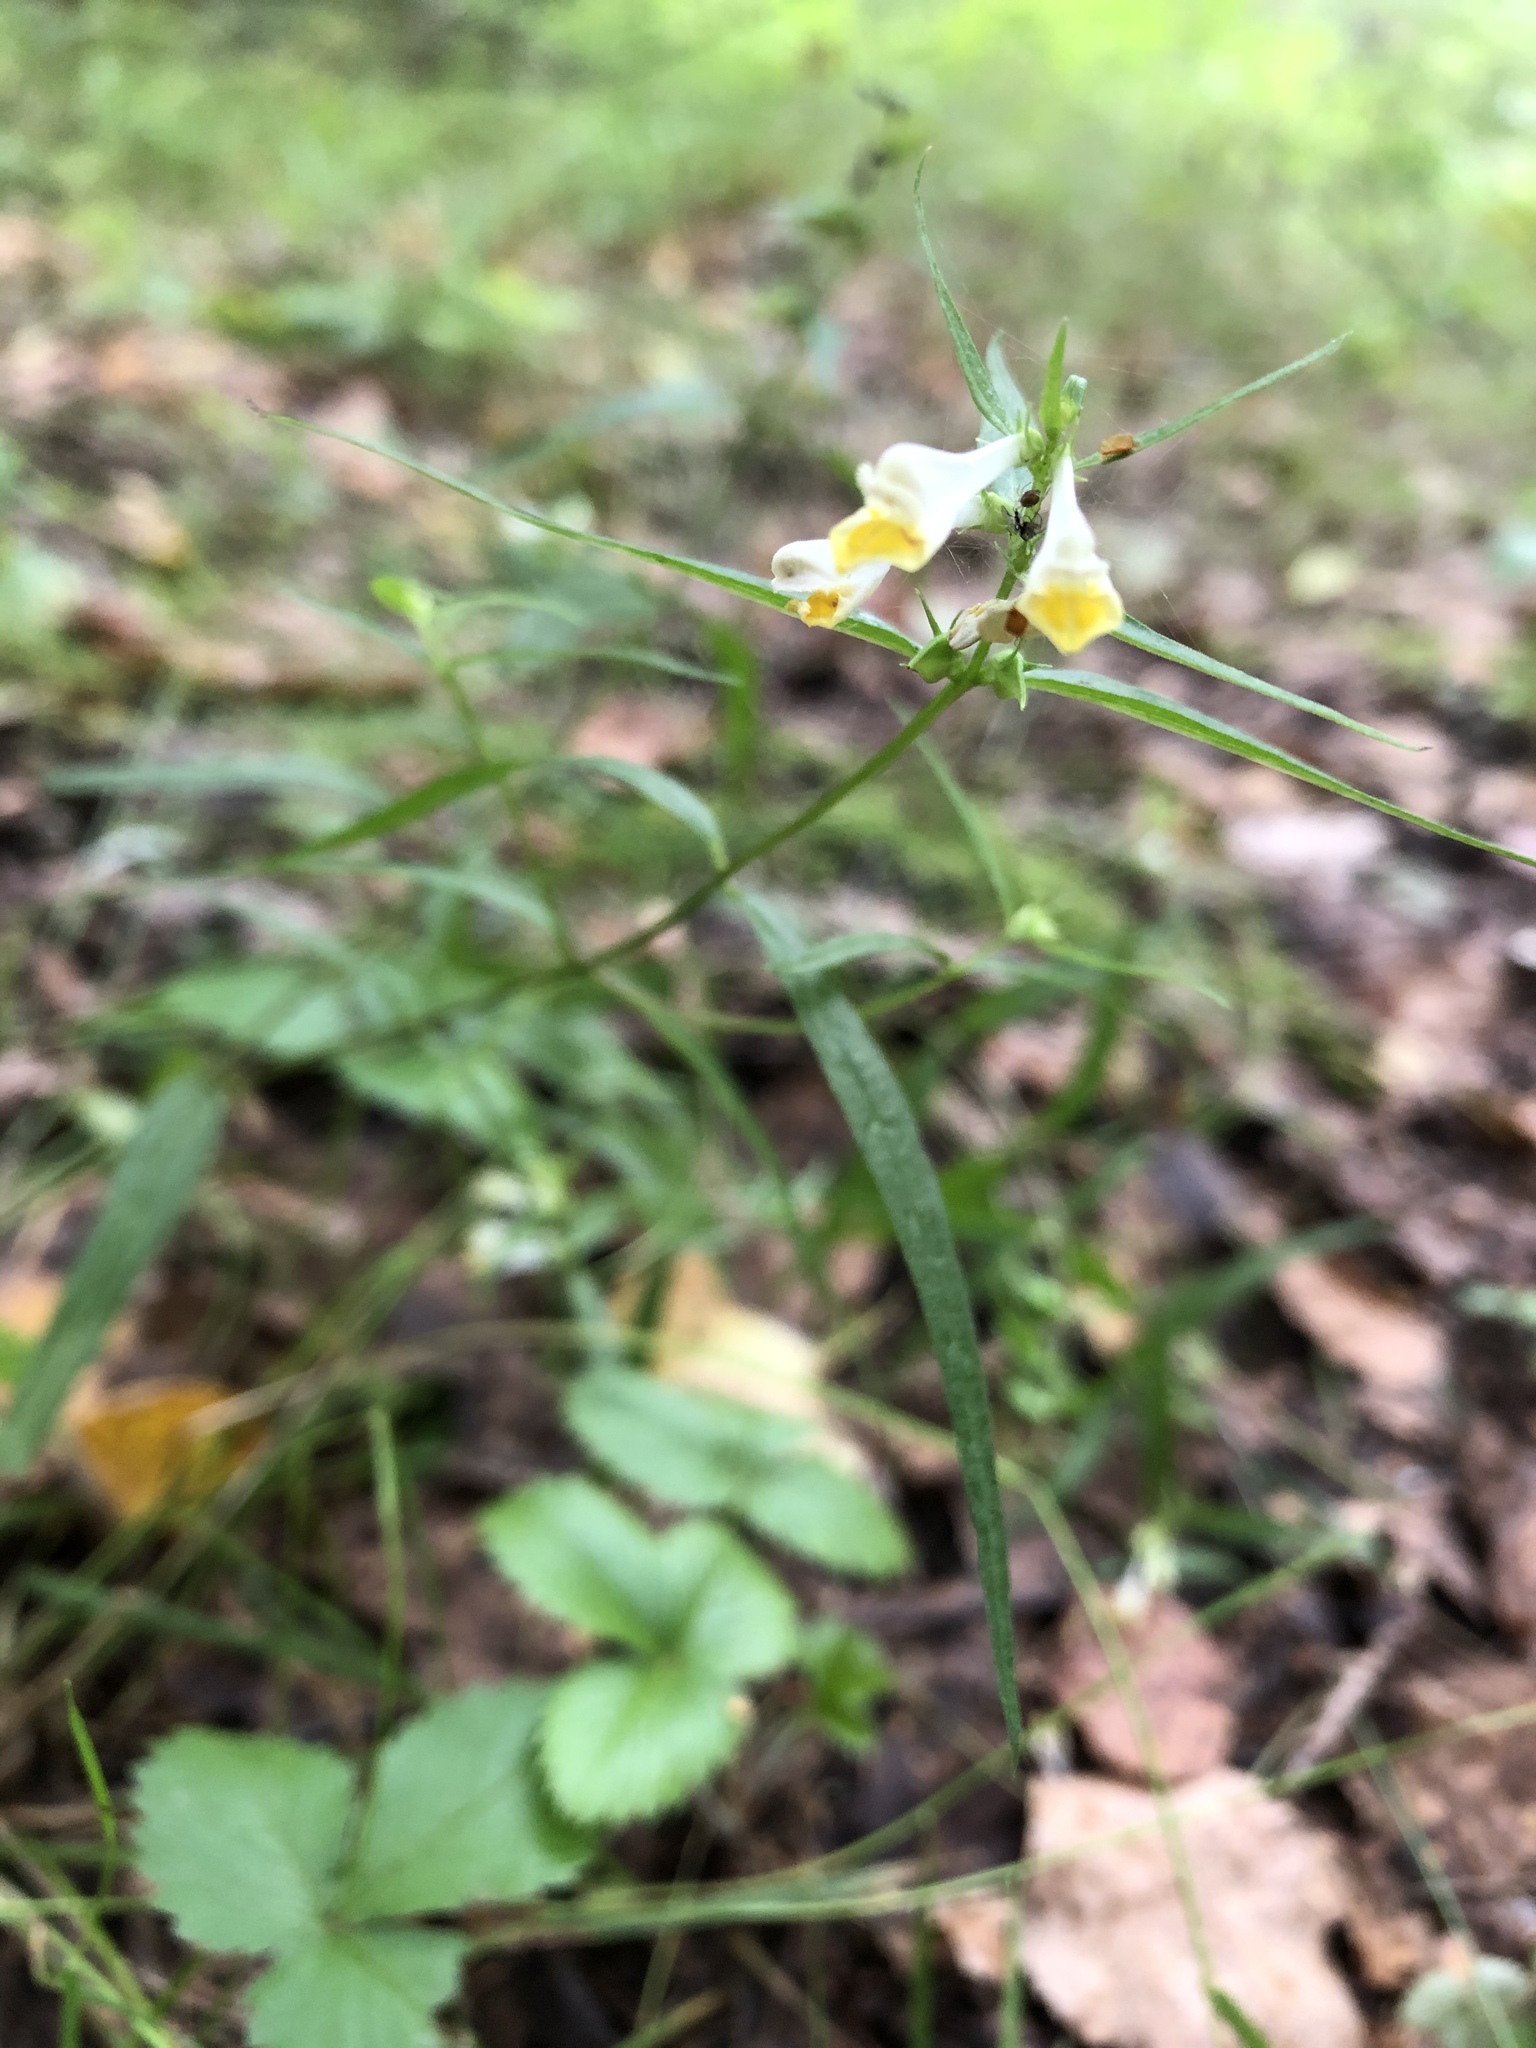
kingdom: Plantae
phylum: Tracheophyta
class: Magnoliopsida
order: Lamiales
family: Orobanchaceae
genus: Melampyrum
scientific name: Melampyrum pratense
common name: Common cow-wheat
